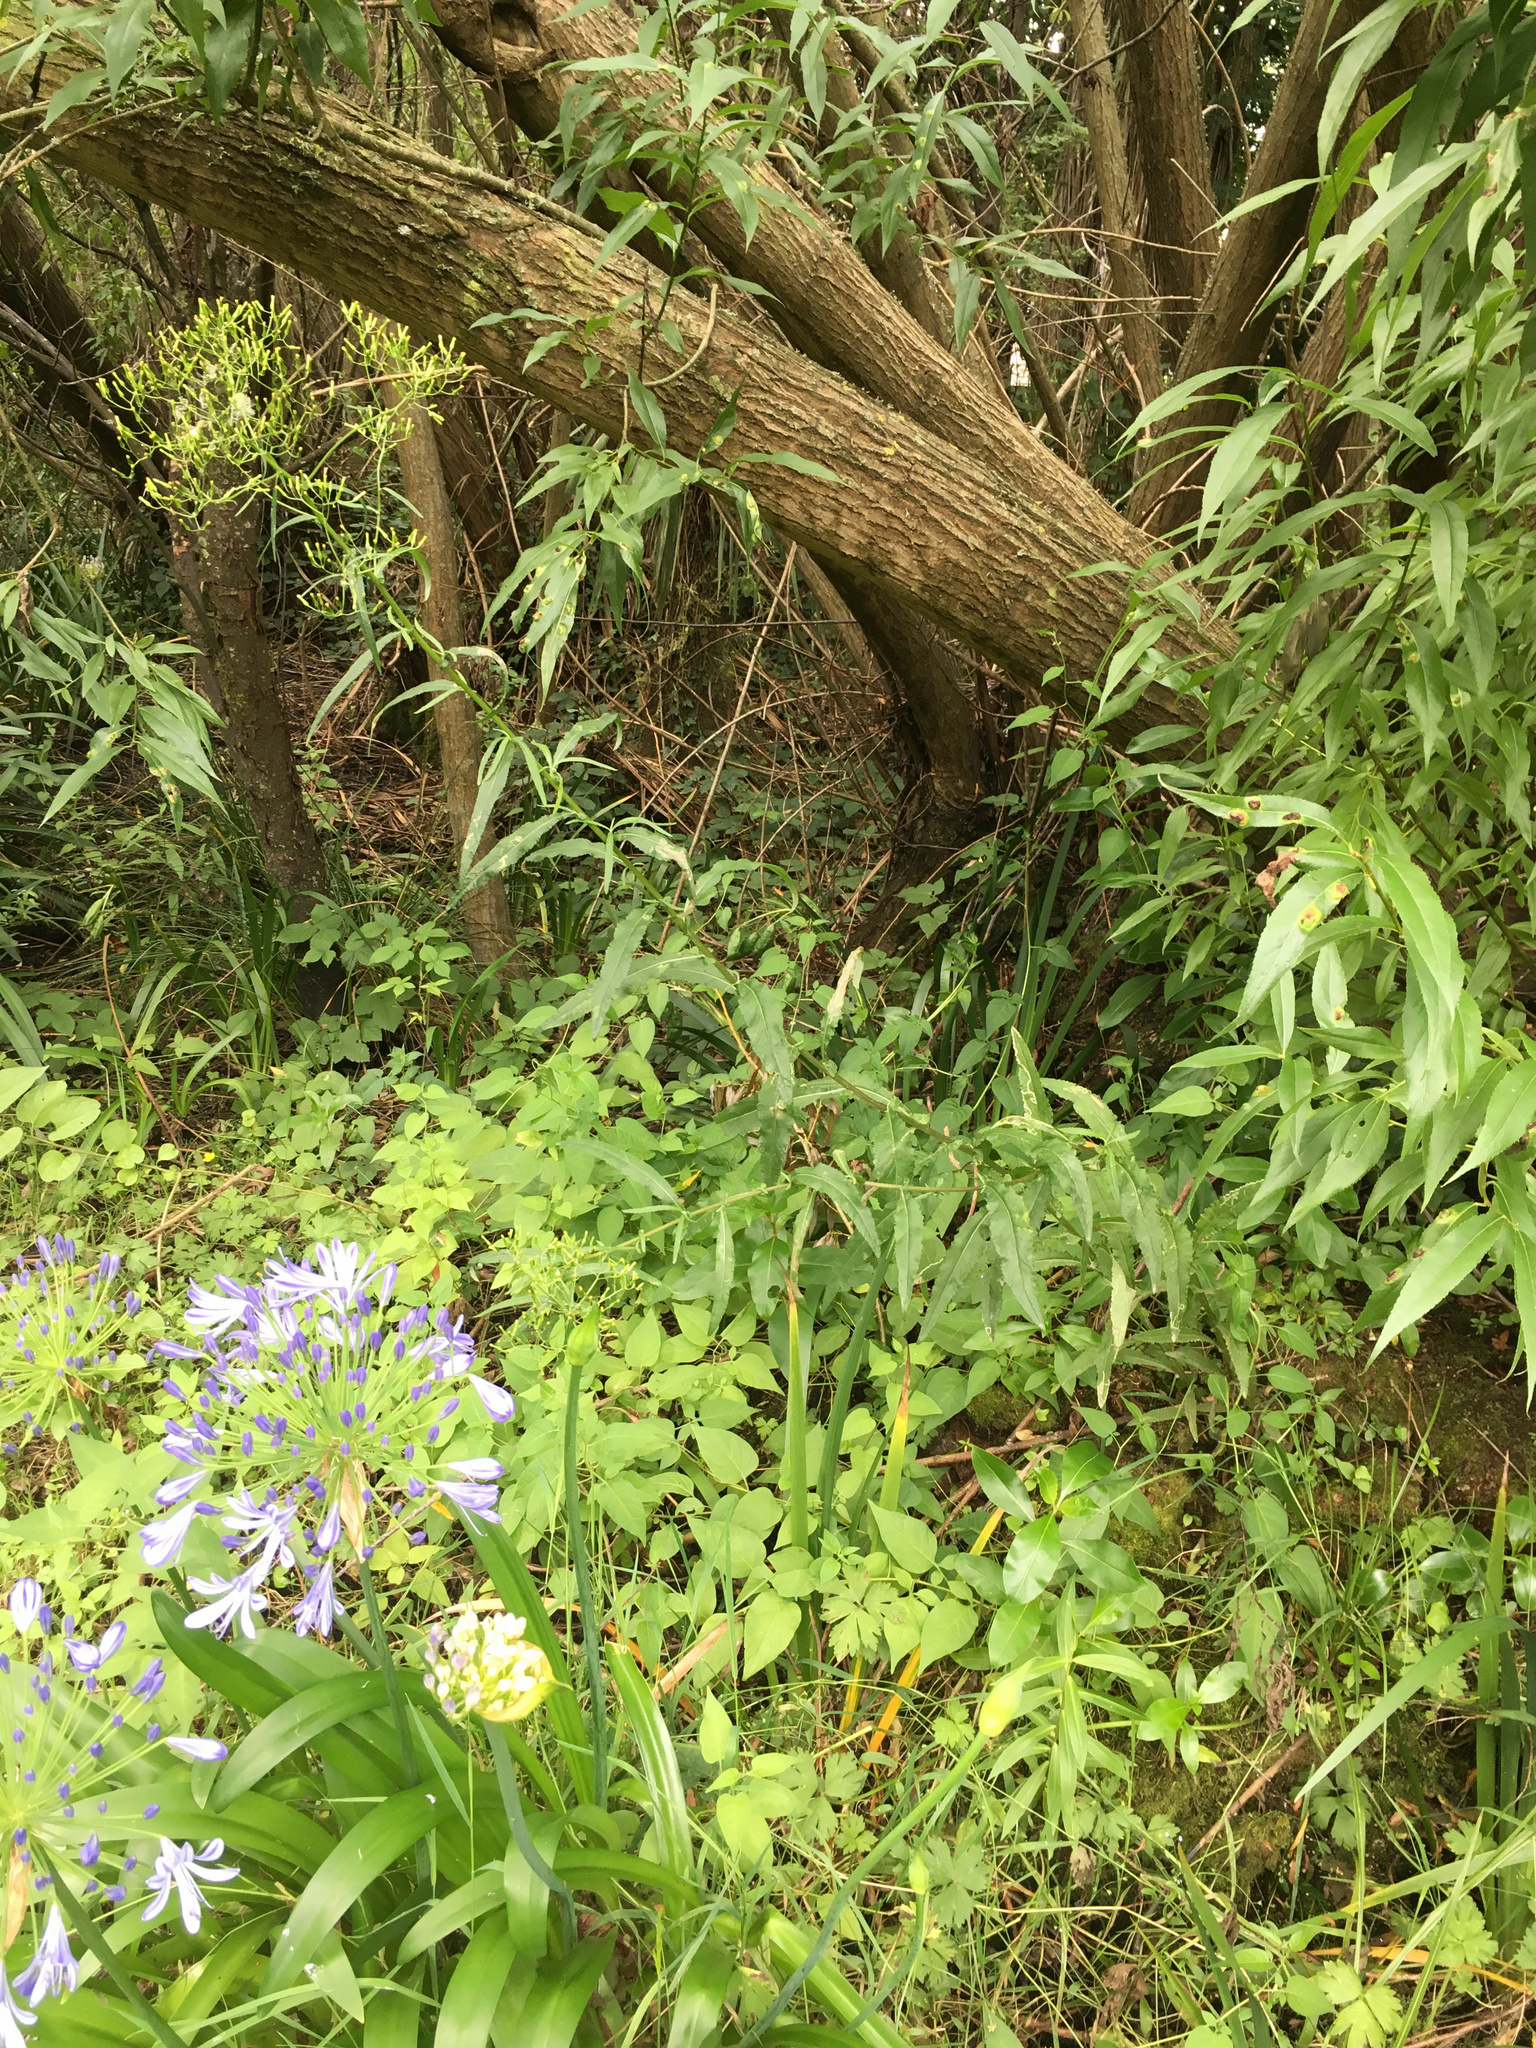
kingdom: Plantae
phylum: Tracheophyta
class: Magnoliopsida
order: Asterales
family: Asteraceae
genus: Senecio
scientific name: Senecio minimus
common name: Toothed fireweed
